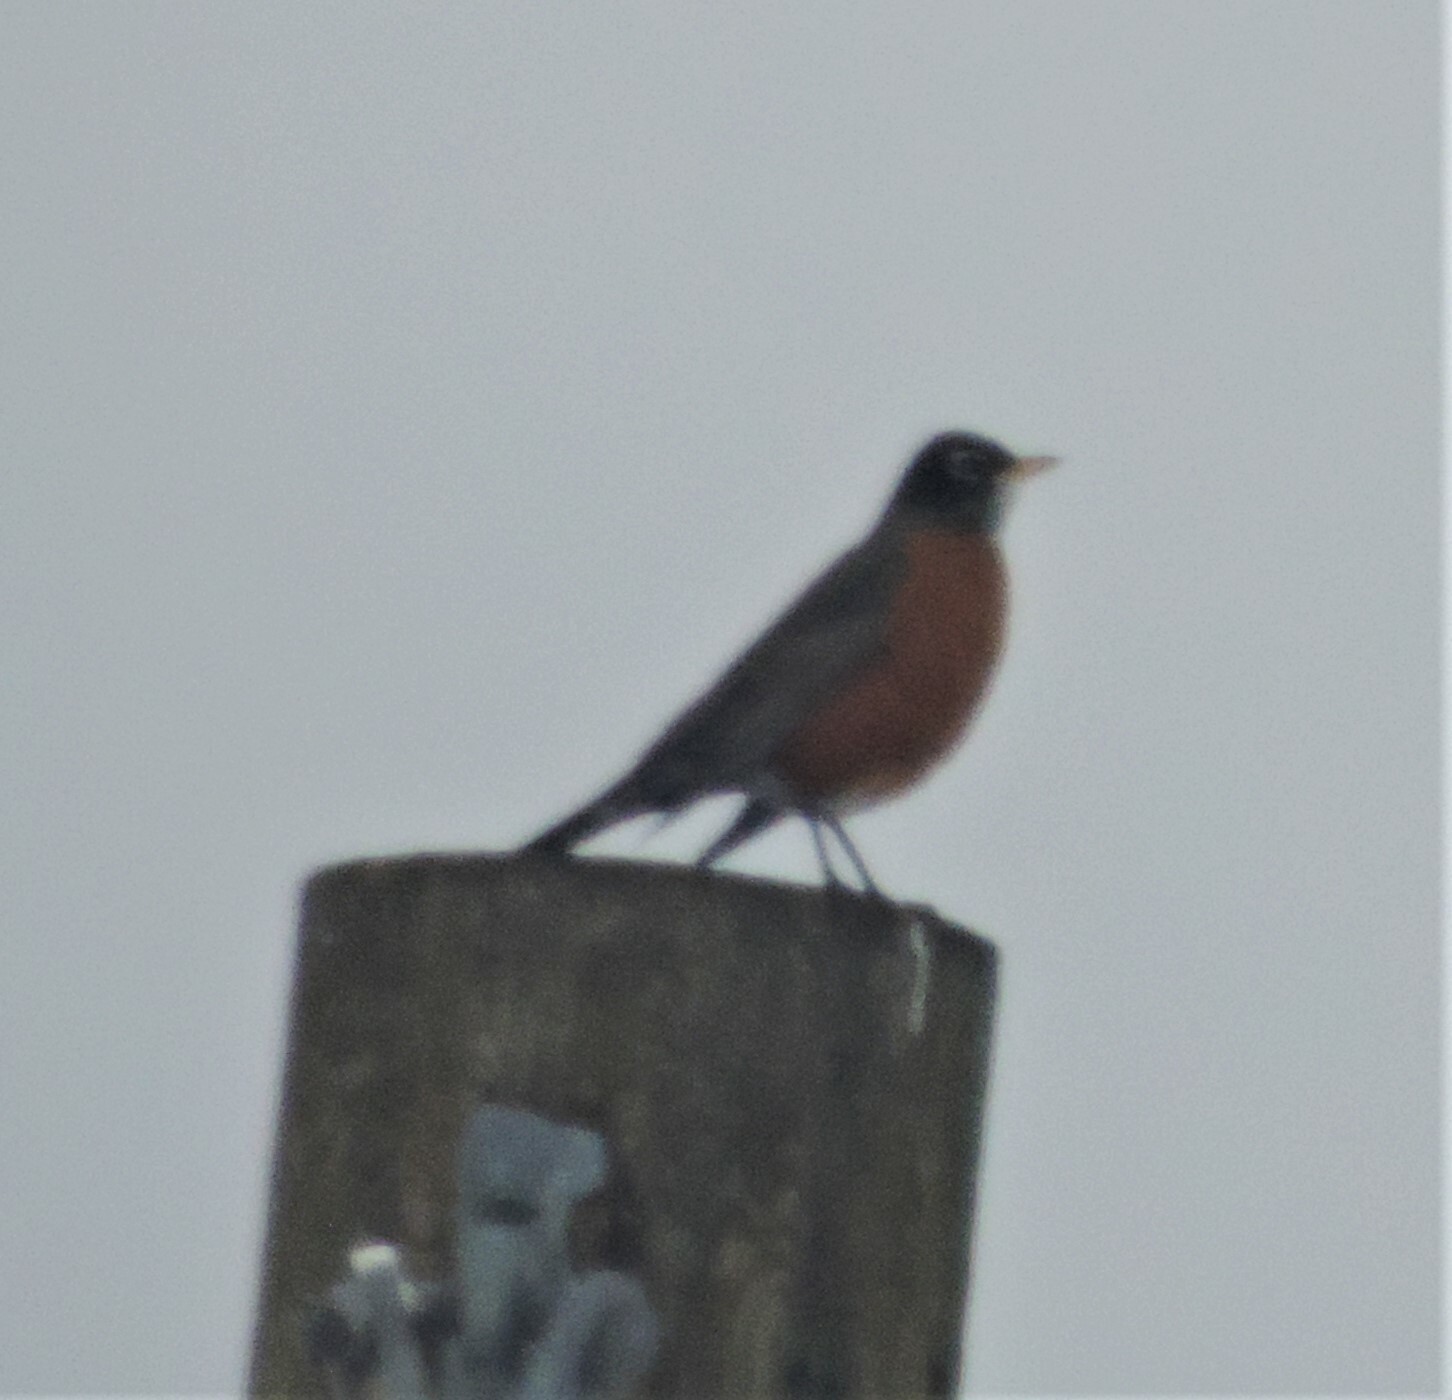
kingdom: Animalia
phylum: Chordata
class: Aves
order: Passeriformes
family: Turdidae
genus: Turdus
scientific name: Turdus migratorius
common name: American robin
